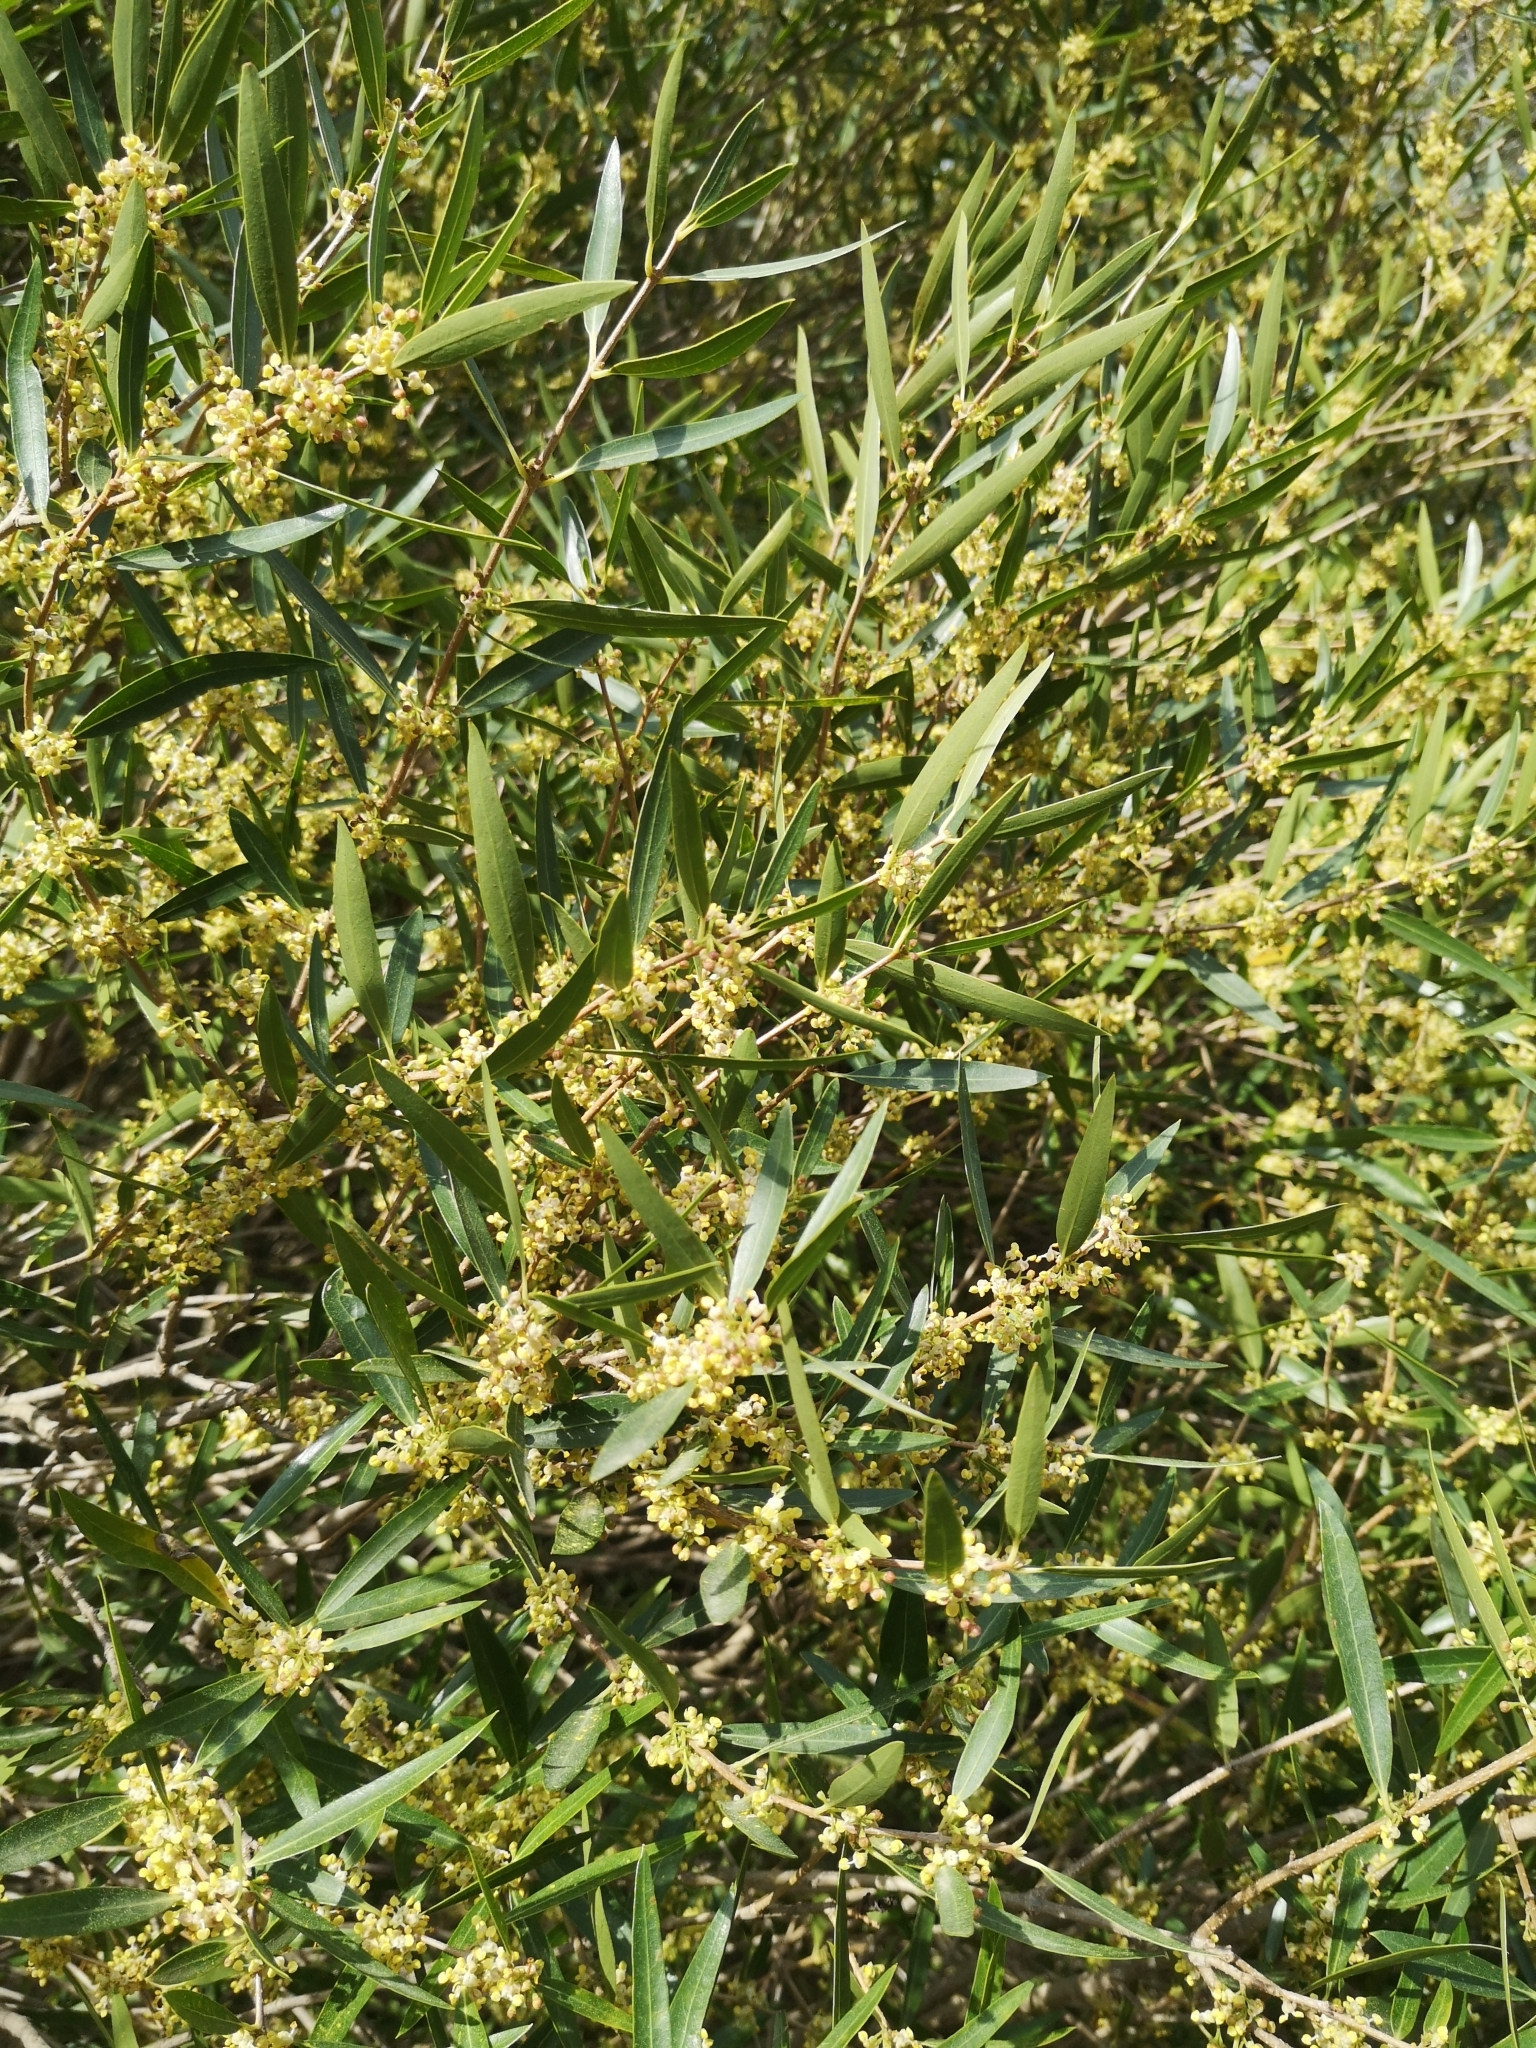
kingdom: Plantae
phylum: Tracheophyta
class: Magnoliopsida
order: Lamiales
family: Oleaceae
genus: Phillyrea
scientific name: Phillyrea angustifolia
